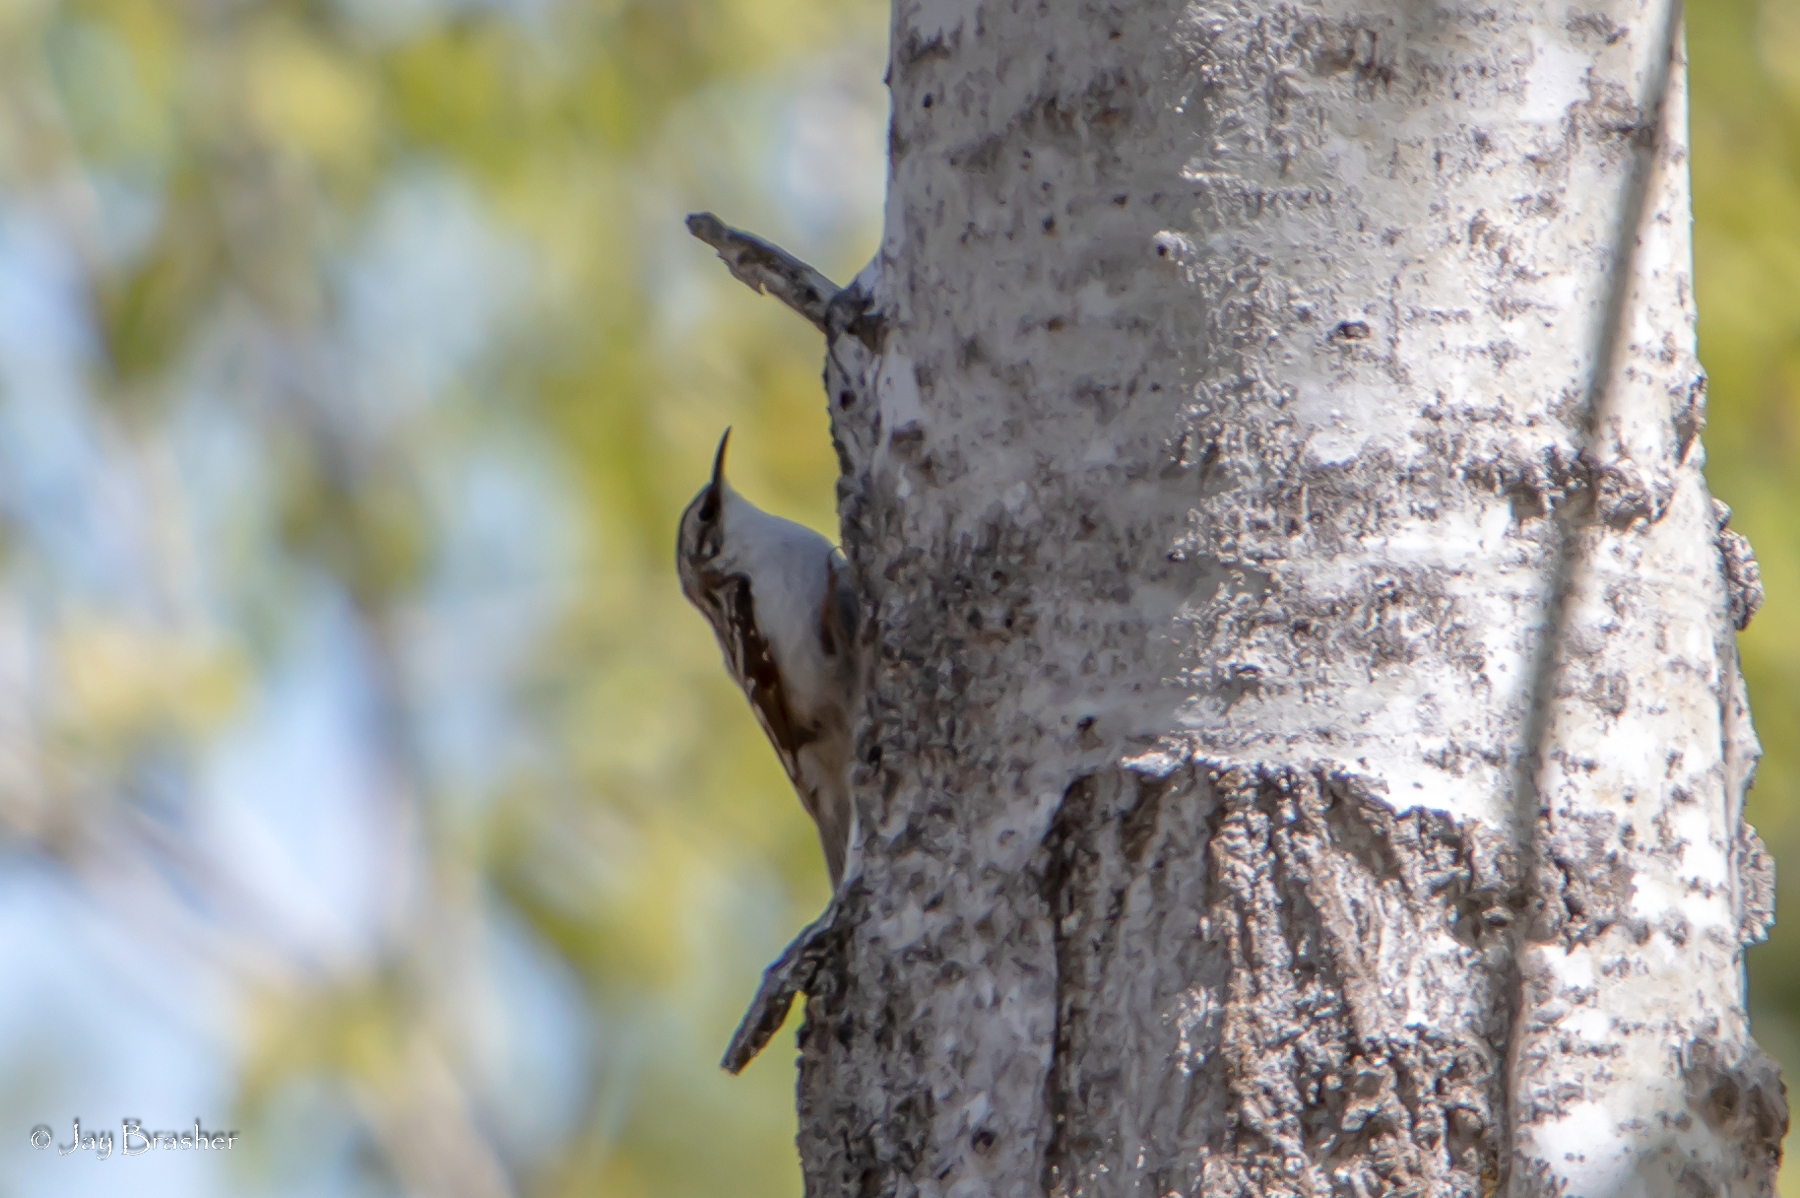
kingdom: Animalia
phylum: Chordata
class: Aves
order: Passeriformes
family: Certhiidae
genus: Certhia
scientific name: Certhia americana
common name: Brown creeper
